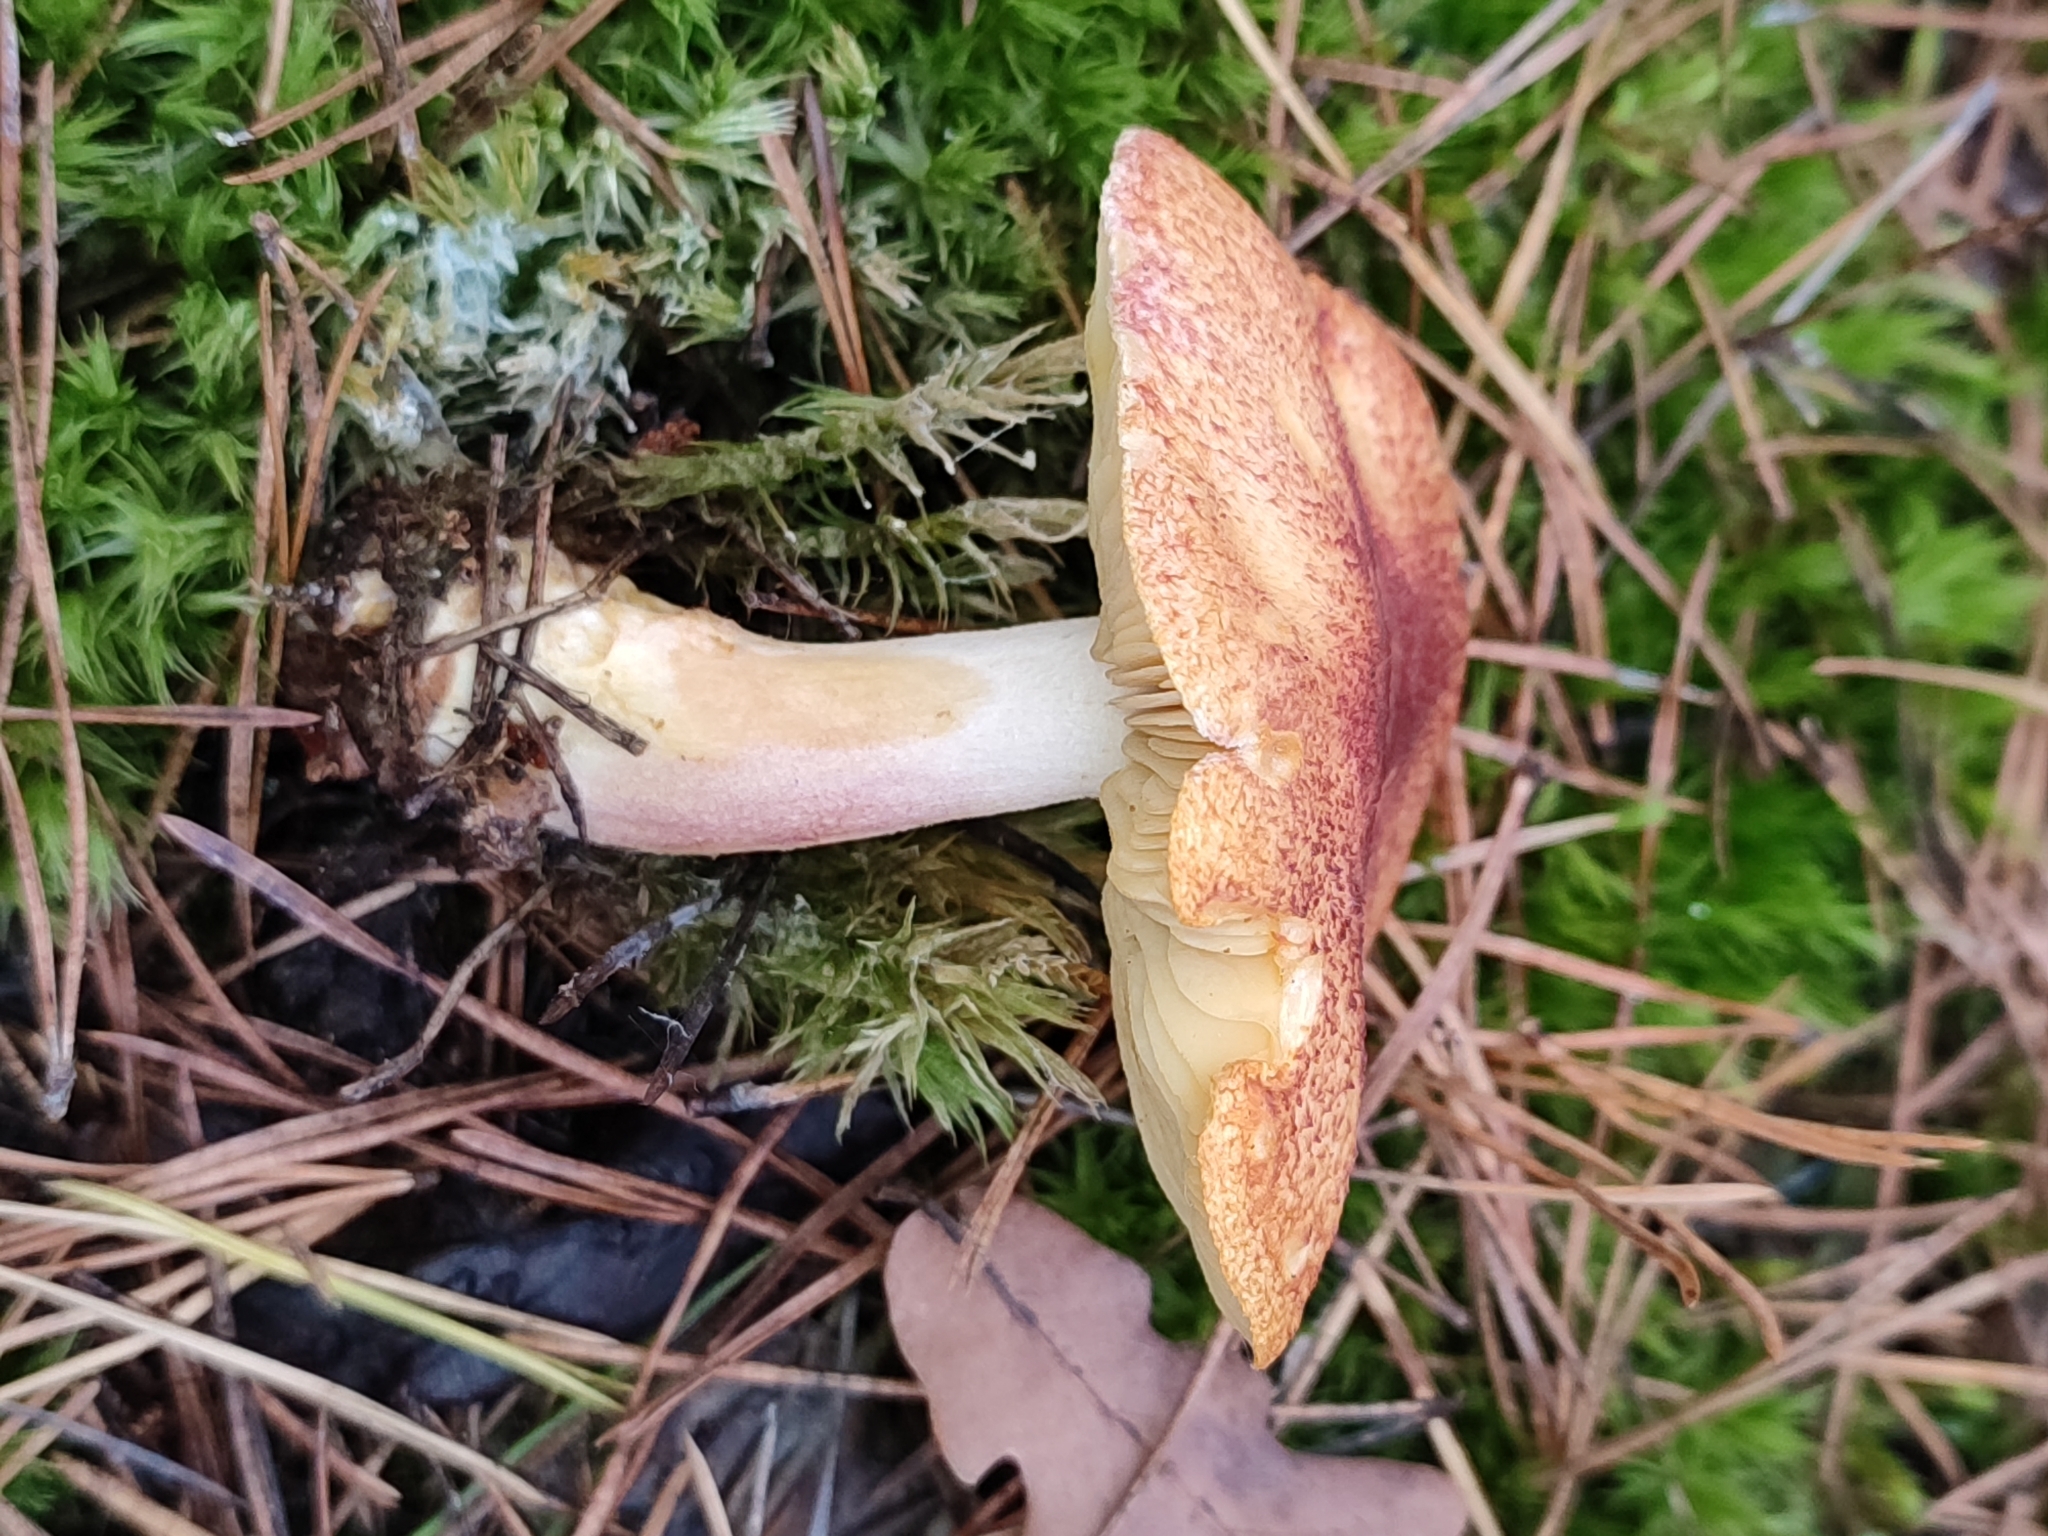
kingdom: Fungi
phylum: Basidiomycota
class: Agaricomycetes
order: Agaricales
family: Tricholomataceae
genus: Tricholomopsis
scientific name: Tricholomopsis rutilans
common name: Plums and custard
